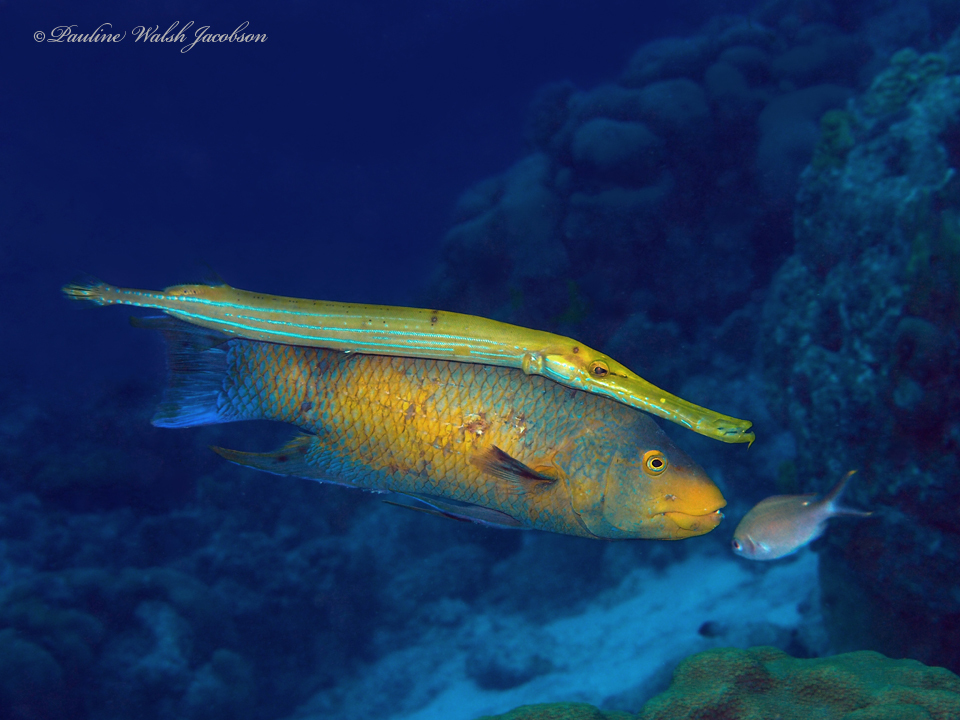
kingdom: Animalia
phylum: Chordata
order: Syngnathiformes
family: Aulostomidae
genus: Aulostomus
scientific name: Aulostomus maculatus
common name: West atlantic trumpetfish
